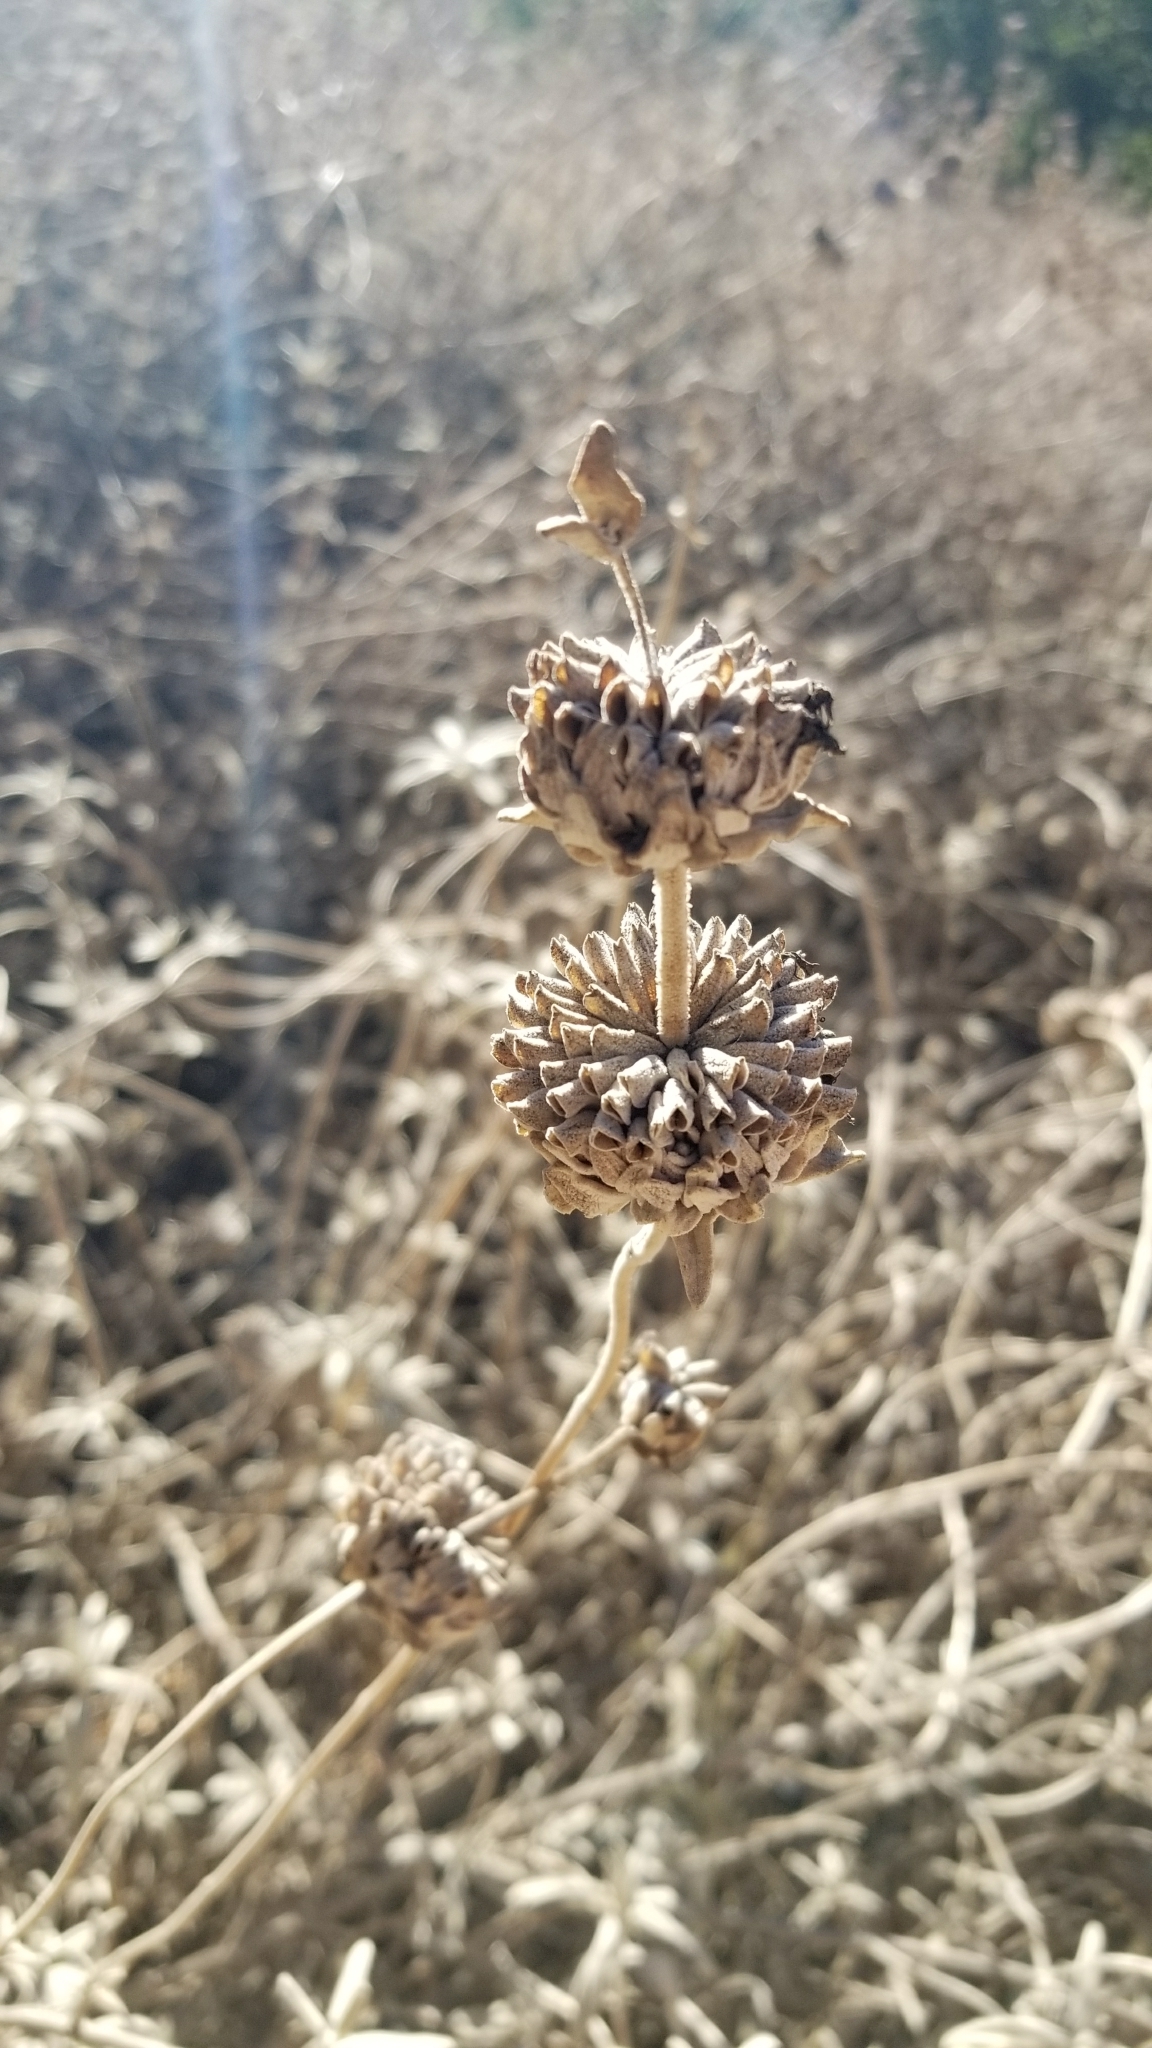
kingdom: Plantae
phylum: Tracheophyta
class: Magnoliopsida
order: Lamiales
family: Lamiaceae
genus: Salvia
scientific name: Salvia leucophylla
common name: Purple sage
